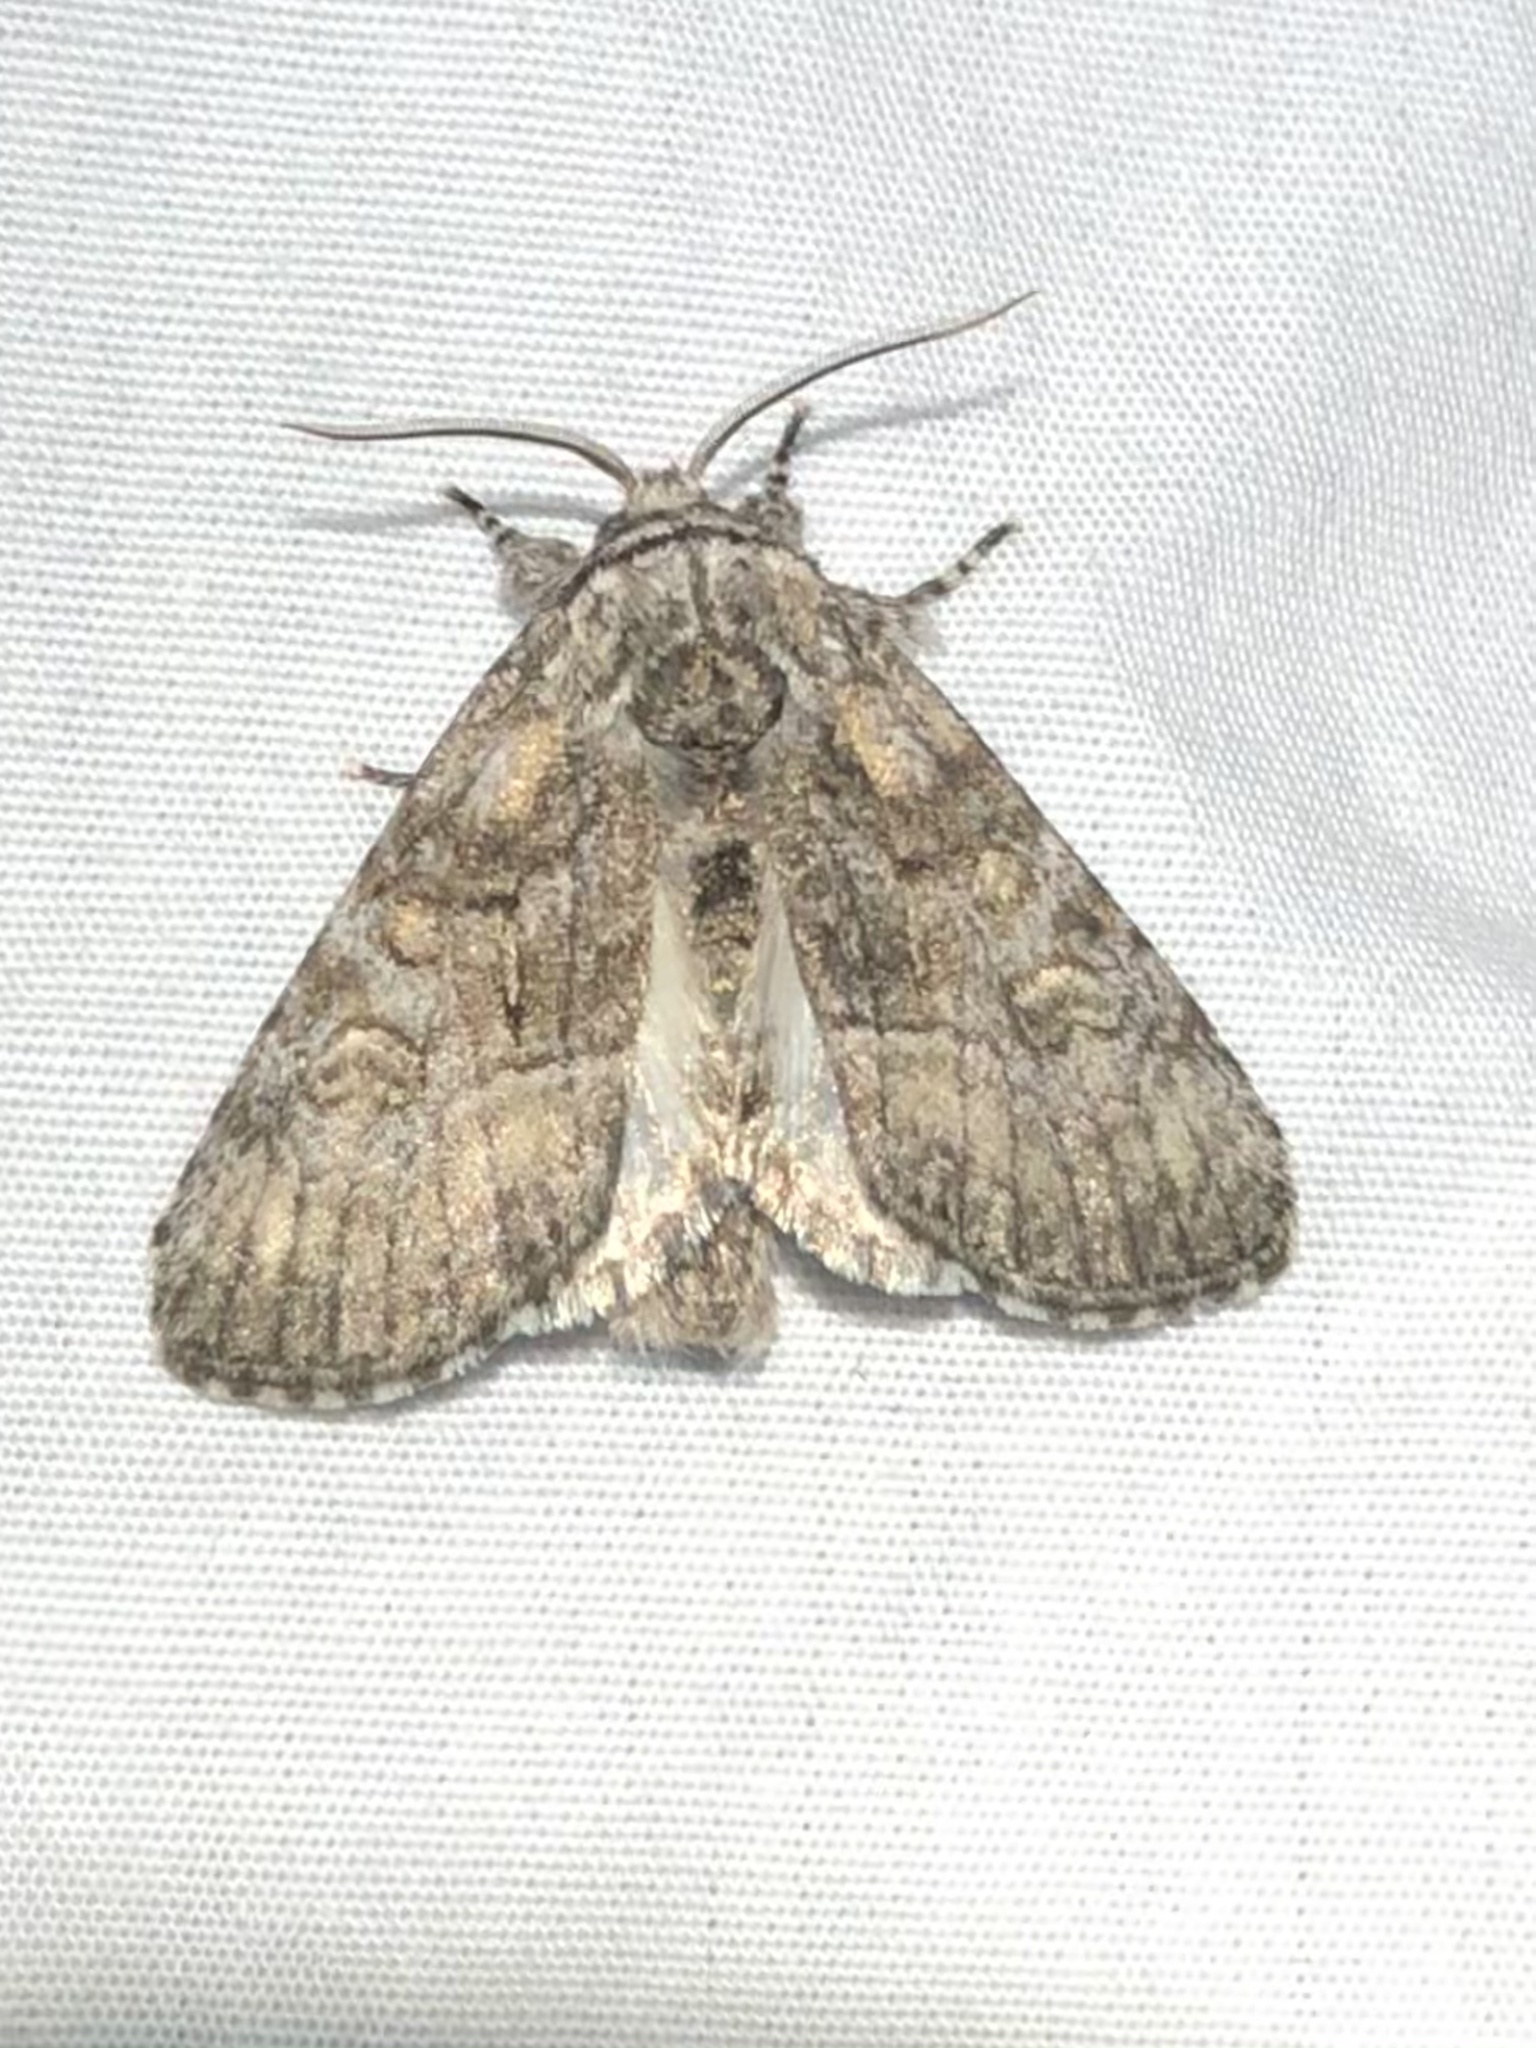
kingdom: Animalia
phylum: Arthropoda
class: Insecta
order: Lepidoptera
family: Noctuidae
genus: Raphia
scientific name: Raphia frater
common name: Brother
